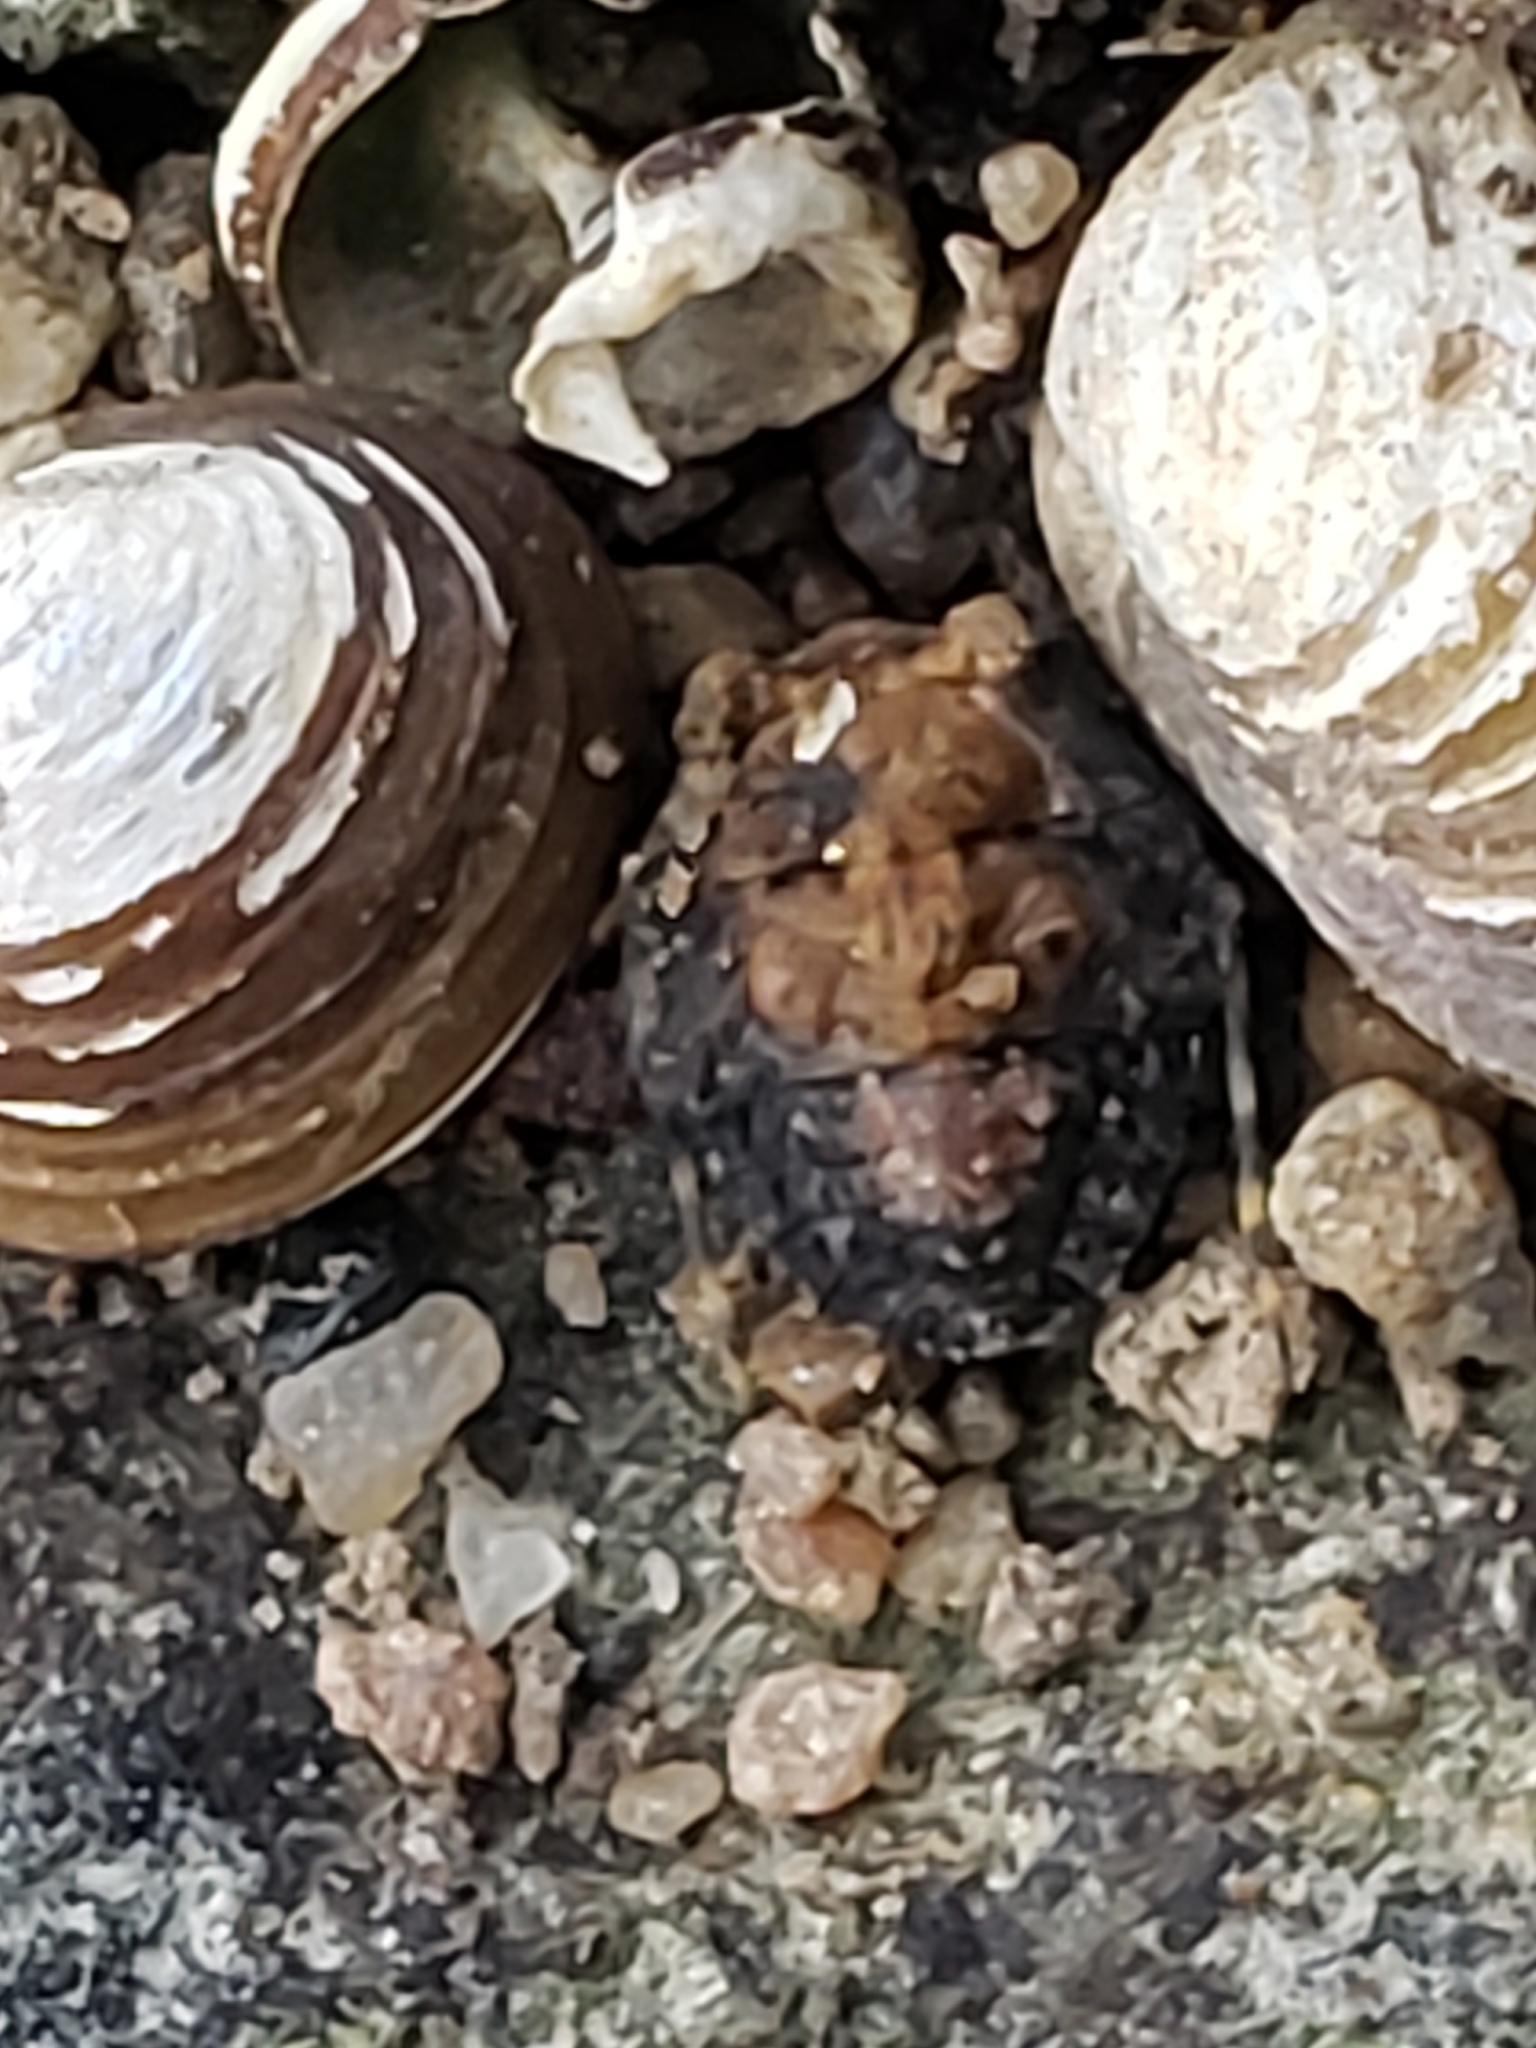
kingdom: Animalia
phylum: Arthropoda
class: Insecta
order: Hemiptera
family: Gelastocoridae
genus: Gelastocoris
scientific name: Gelastocoris oculatus
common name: Toad bug
